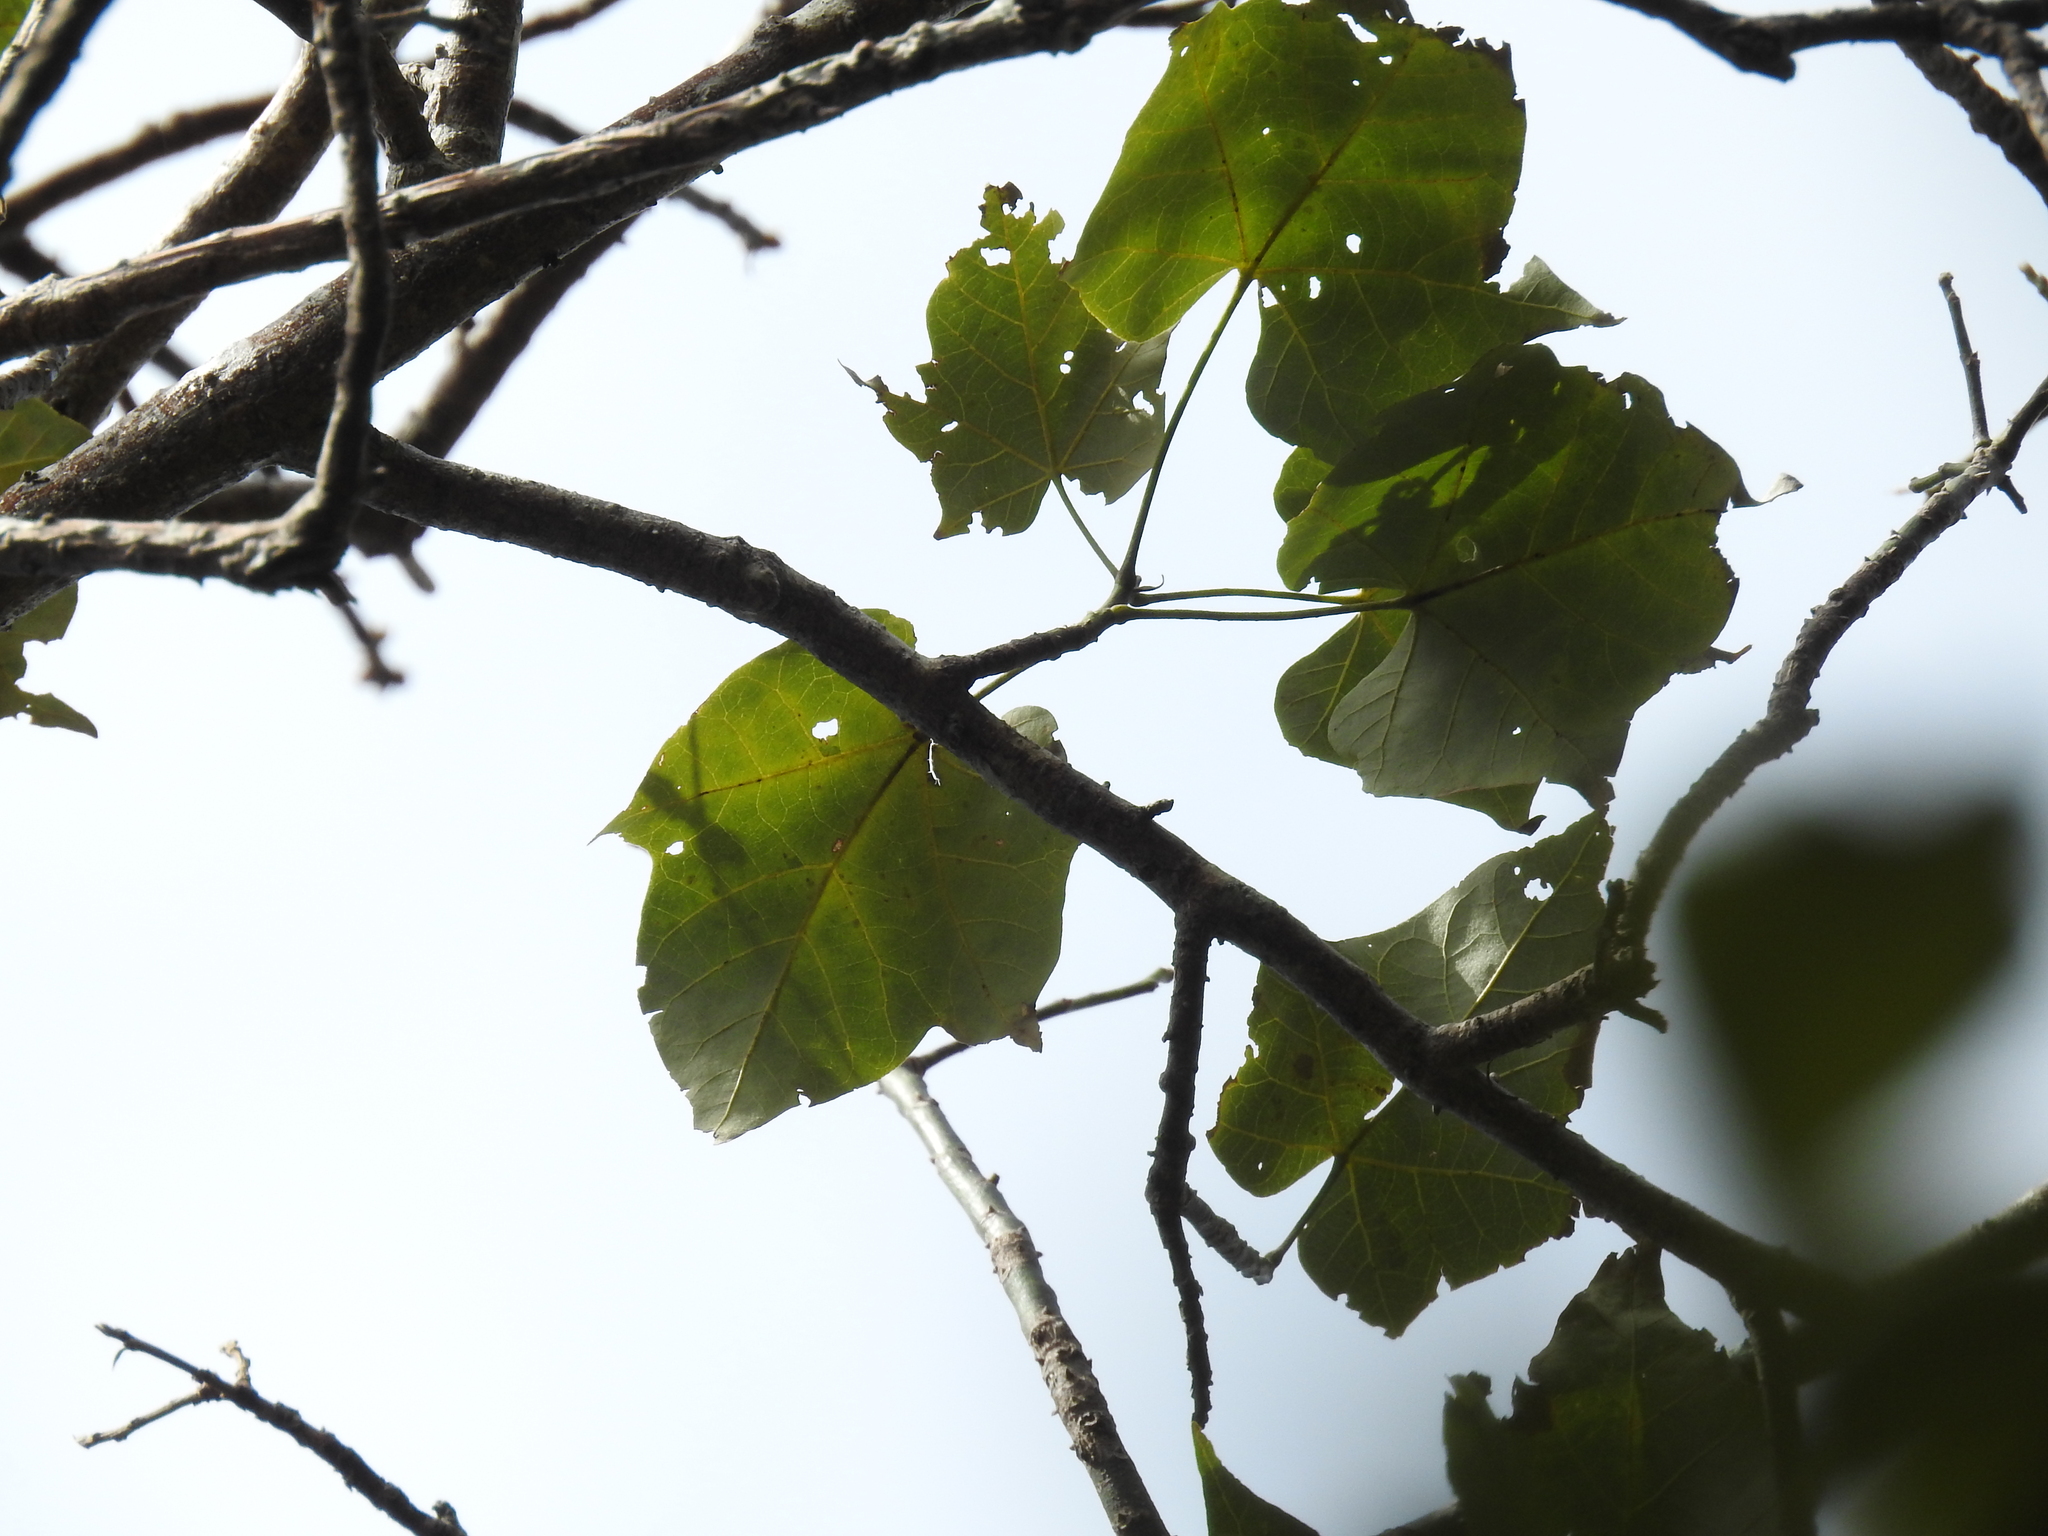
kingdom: Plantae
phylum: Tracheophyta
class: Magnoliopsida
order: Malvales
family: Malvaceae
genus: Brachychiton
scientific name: Brachychiton discolor
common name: Queensland lacebark
